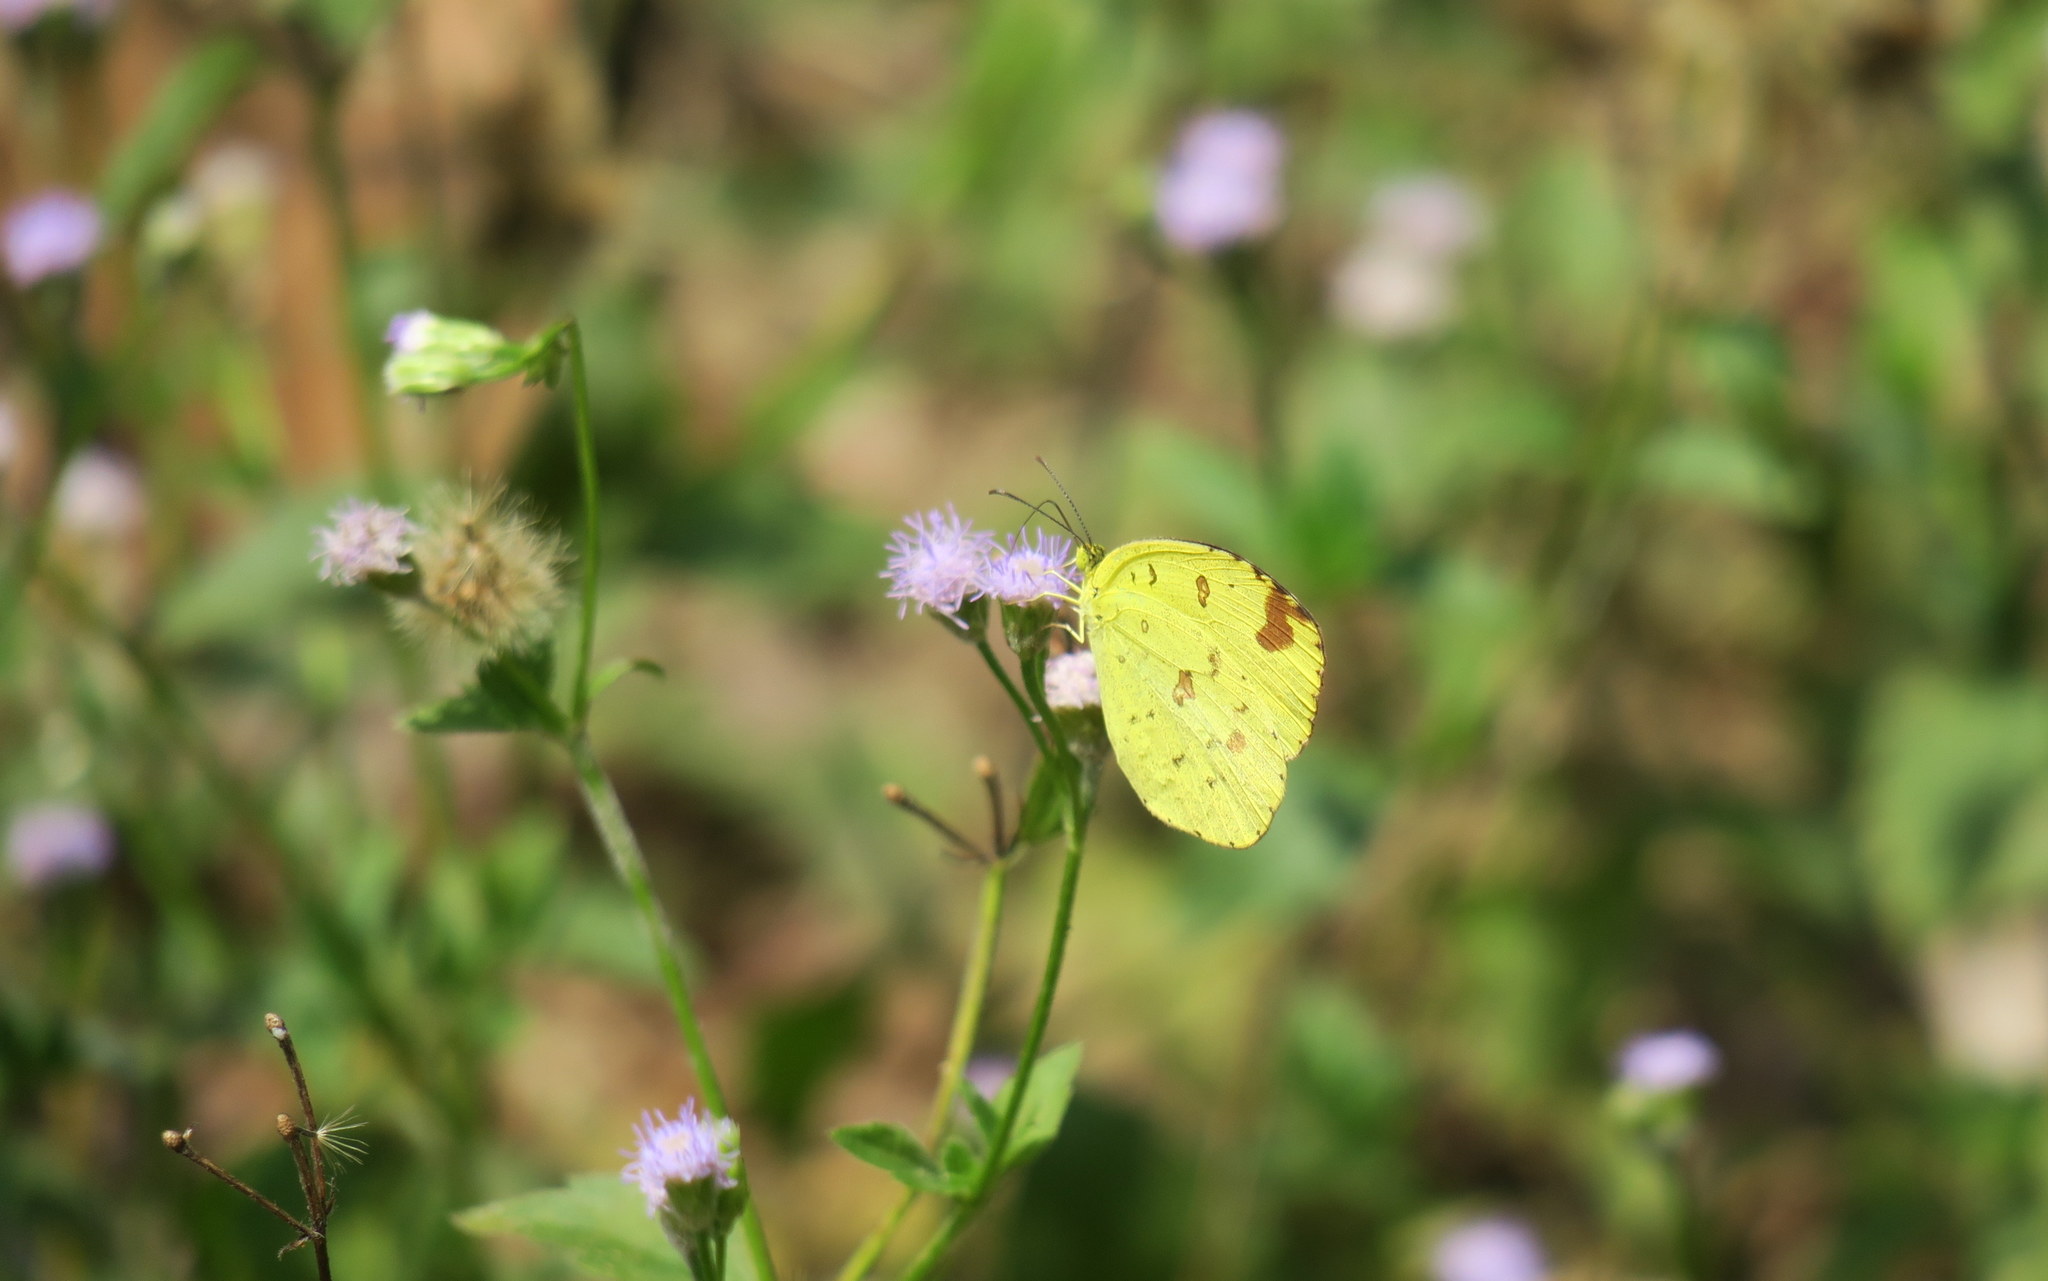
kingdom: Animalia
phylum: Arthropoda
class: Insecta
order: Lepidoptera
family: Pieridae
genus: Eurema
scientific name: Eurema hecabe
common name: Pale grass yellow
